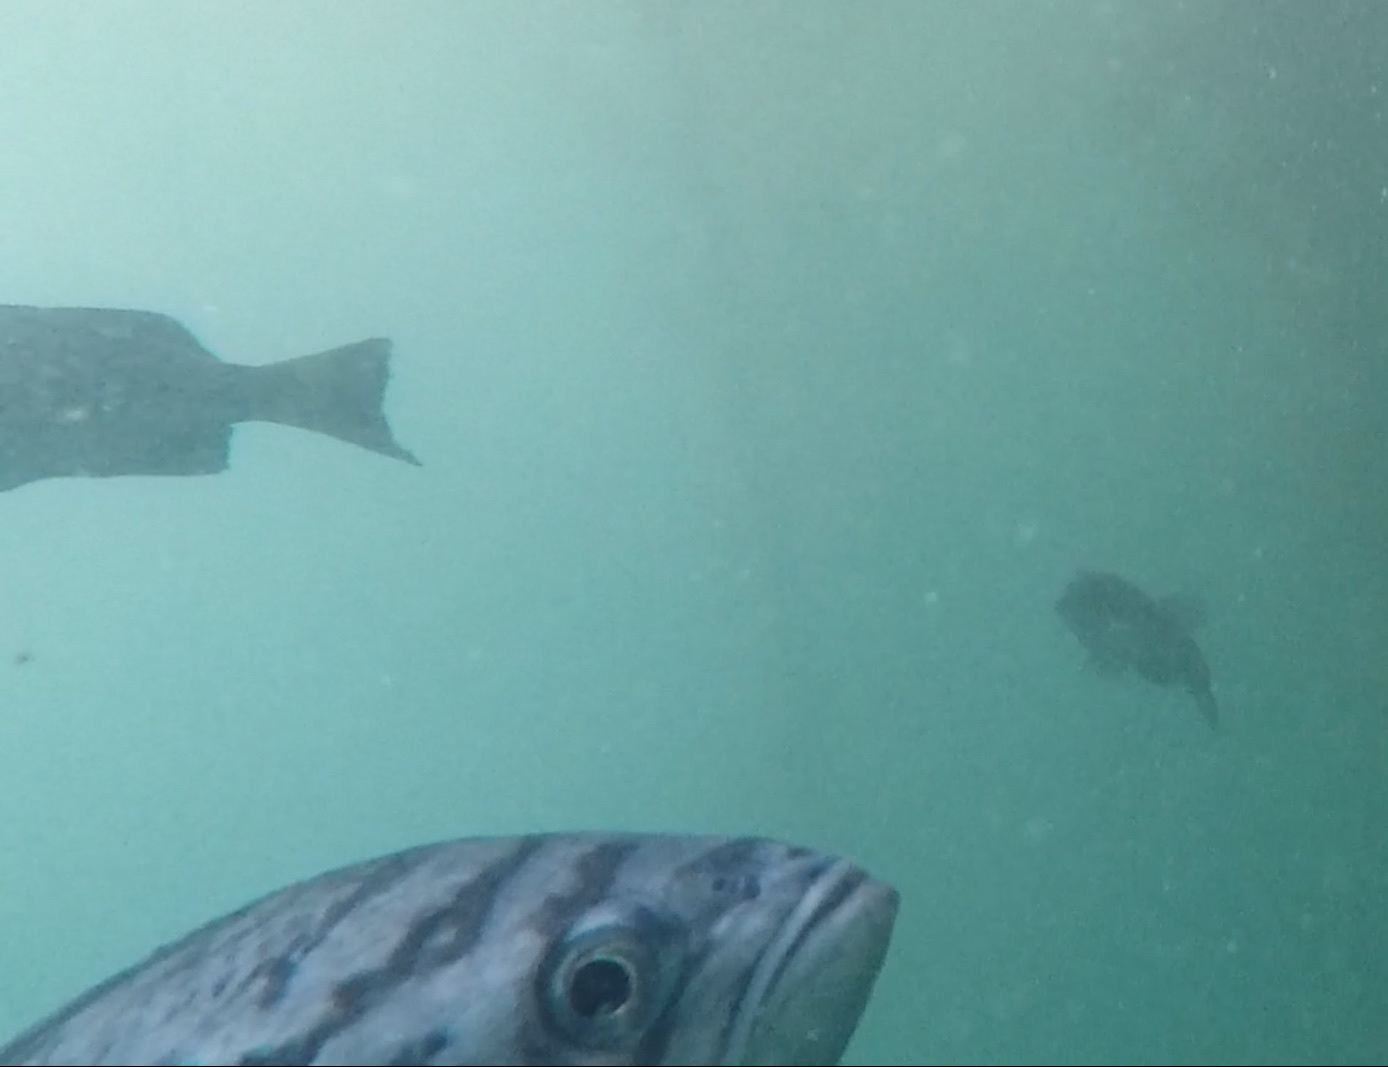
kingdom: Animalia
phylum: Chordata
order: Scorpaeniformes
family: Sebastidae
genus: Sebastes
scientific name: Sebastes mystinus
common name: Blue rockfish
